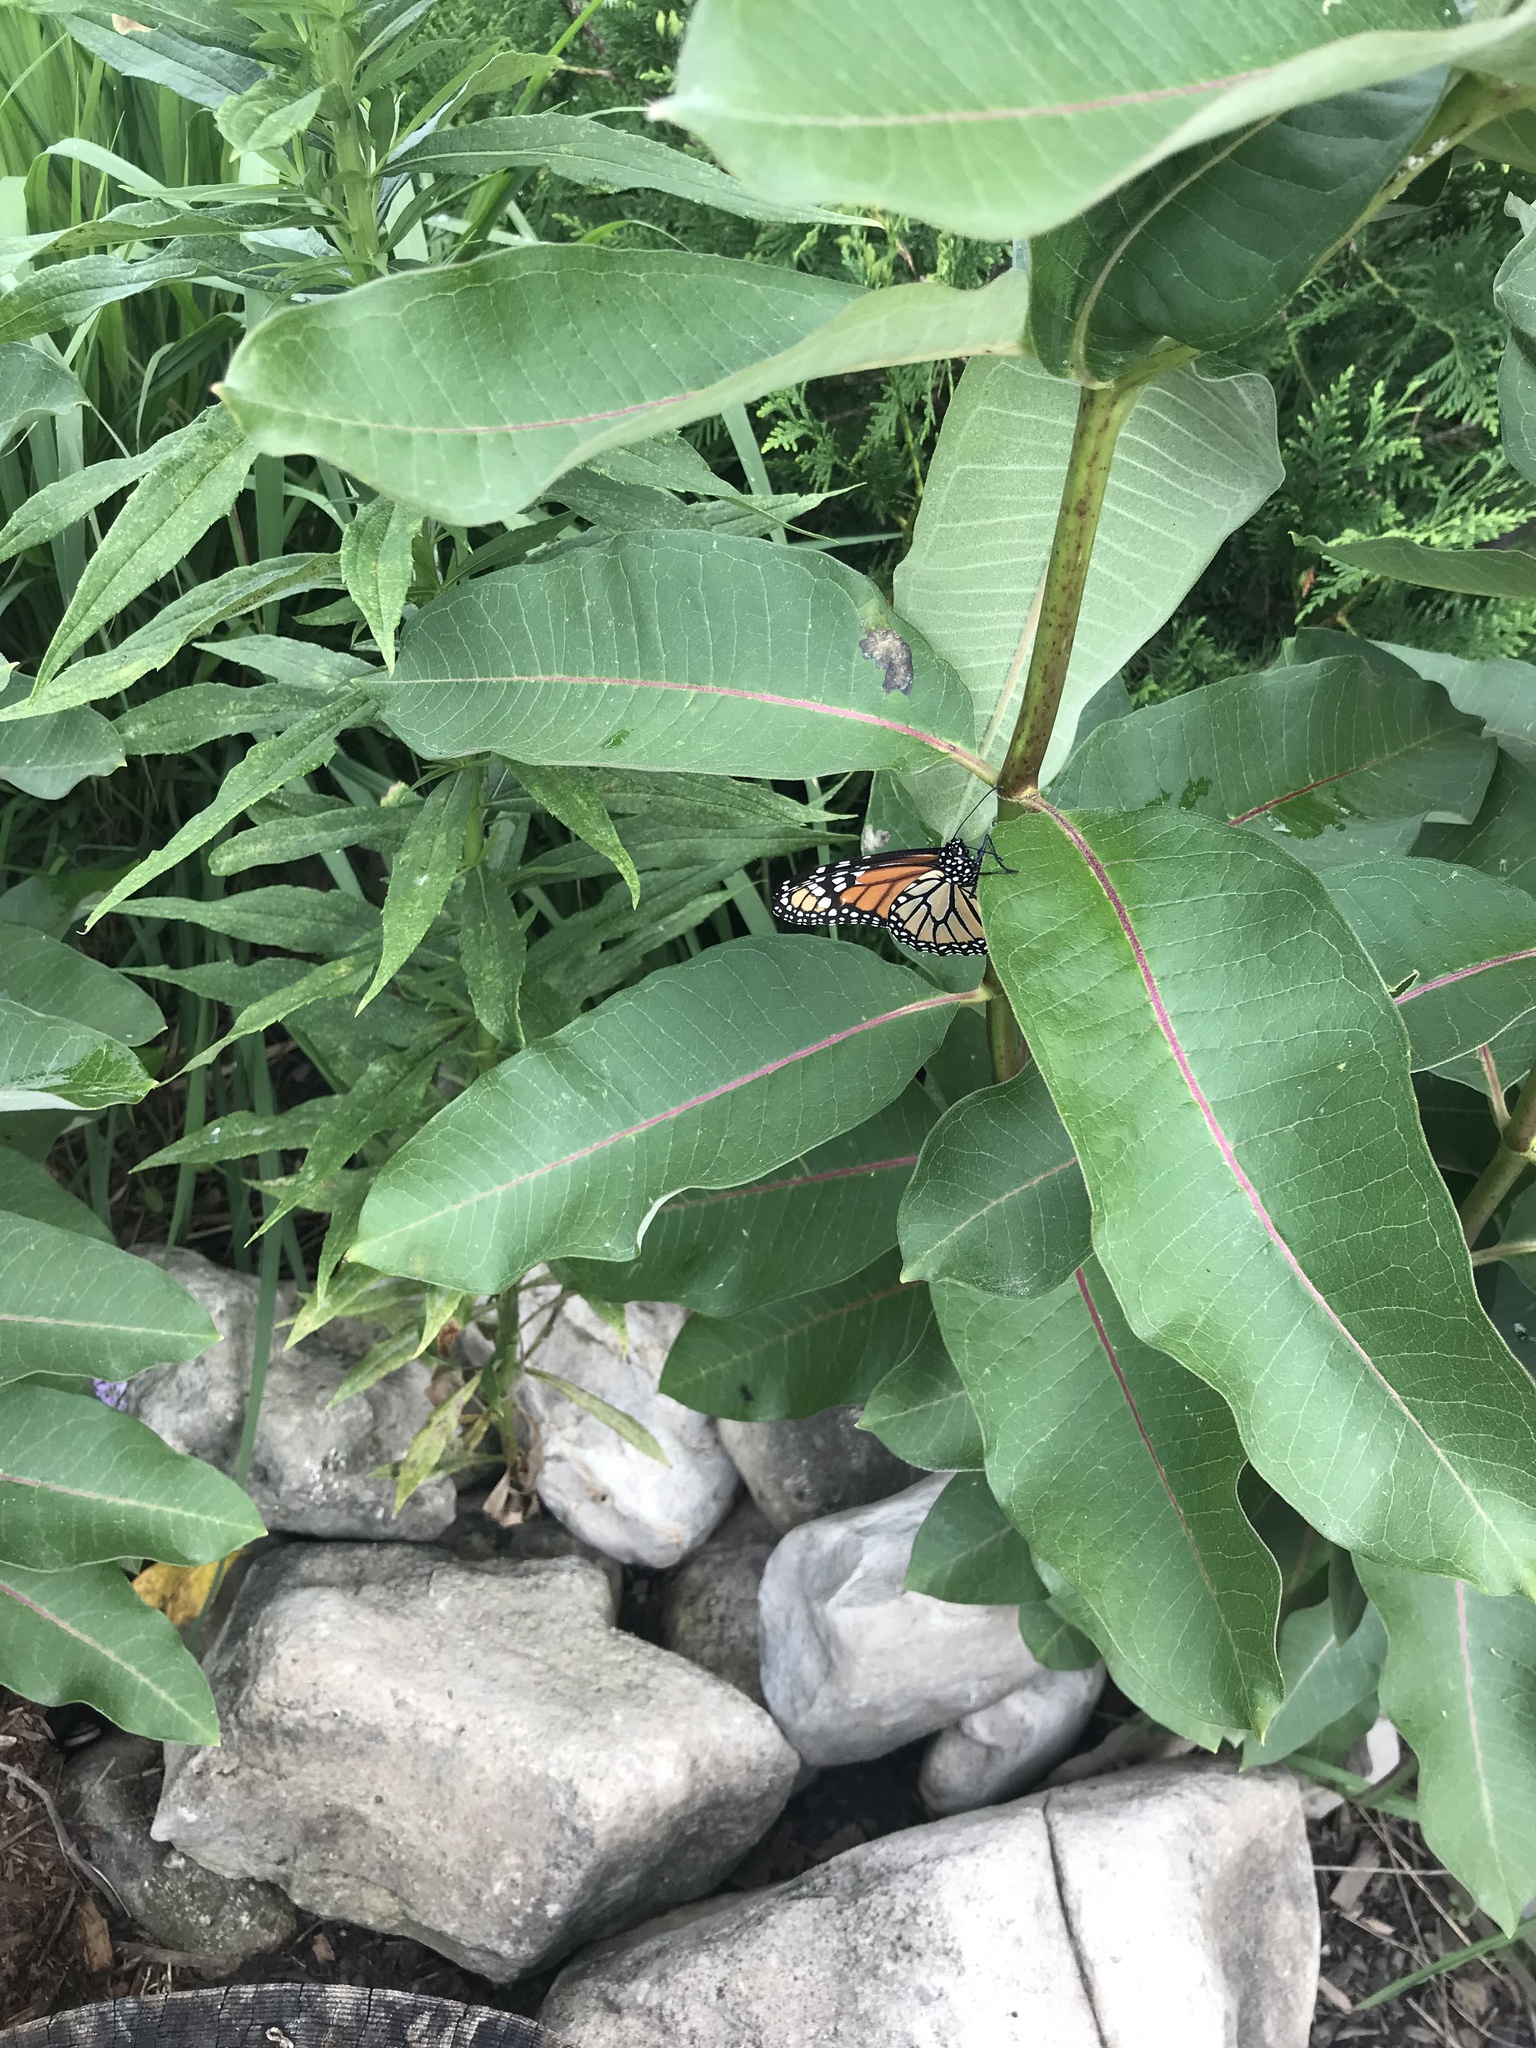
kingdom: Animalia
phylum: Arthropoda
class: Insecta
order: Lepidoptera
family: Nymphalidae
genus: Danaus
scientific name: Danaus plexippus
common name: Monarch
